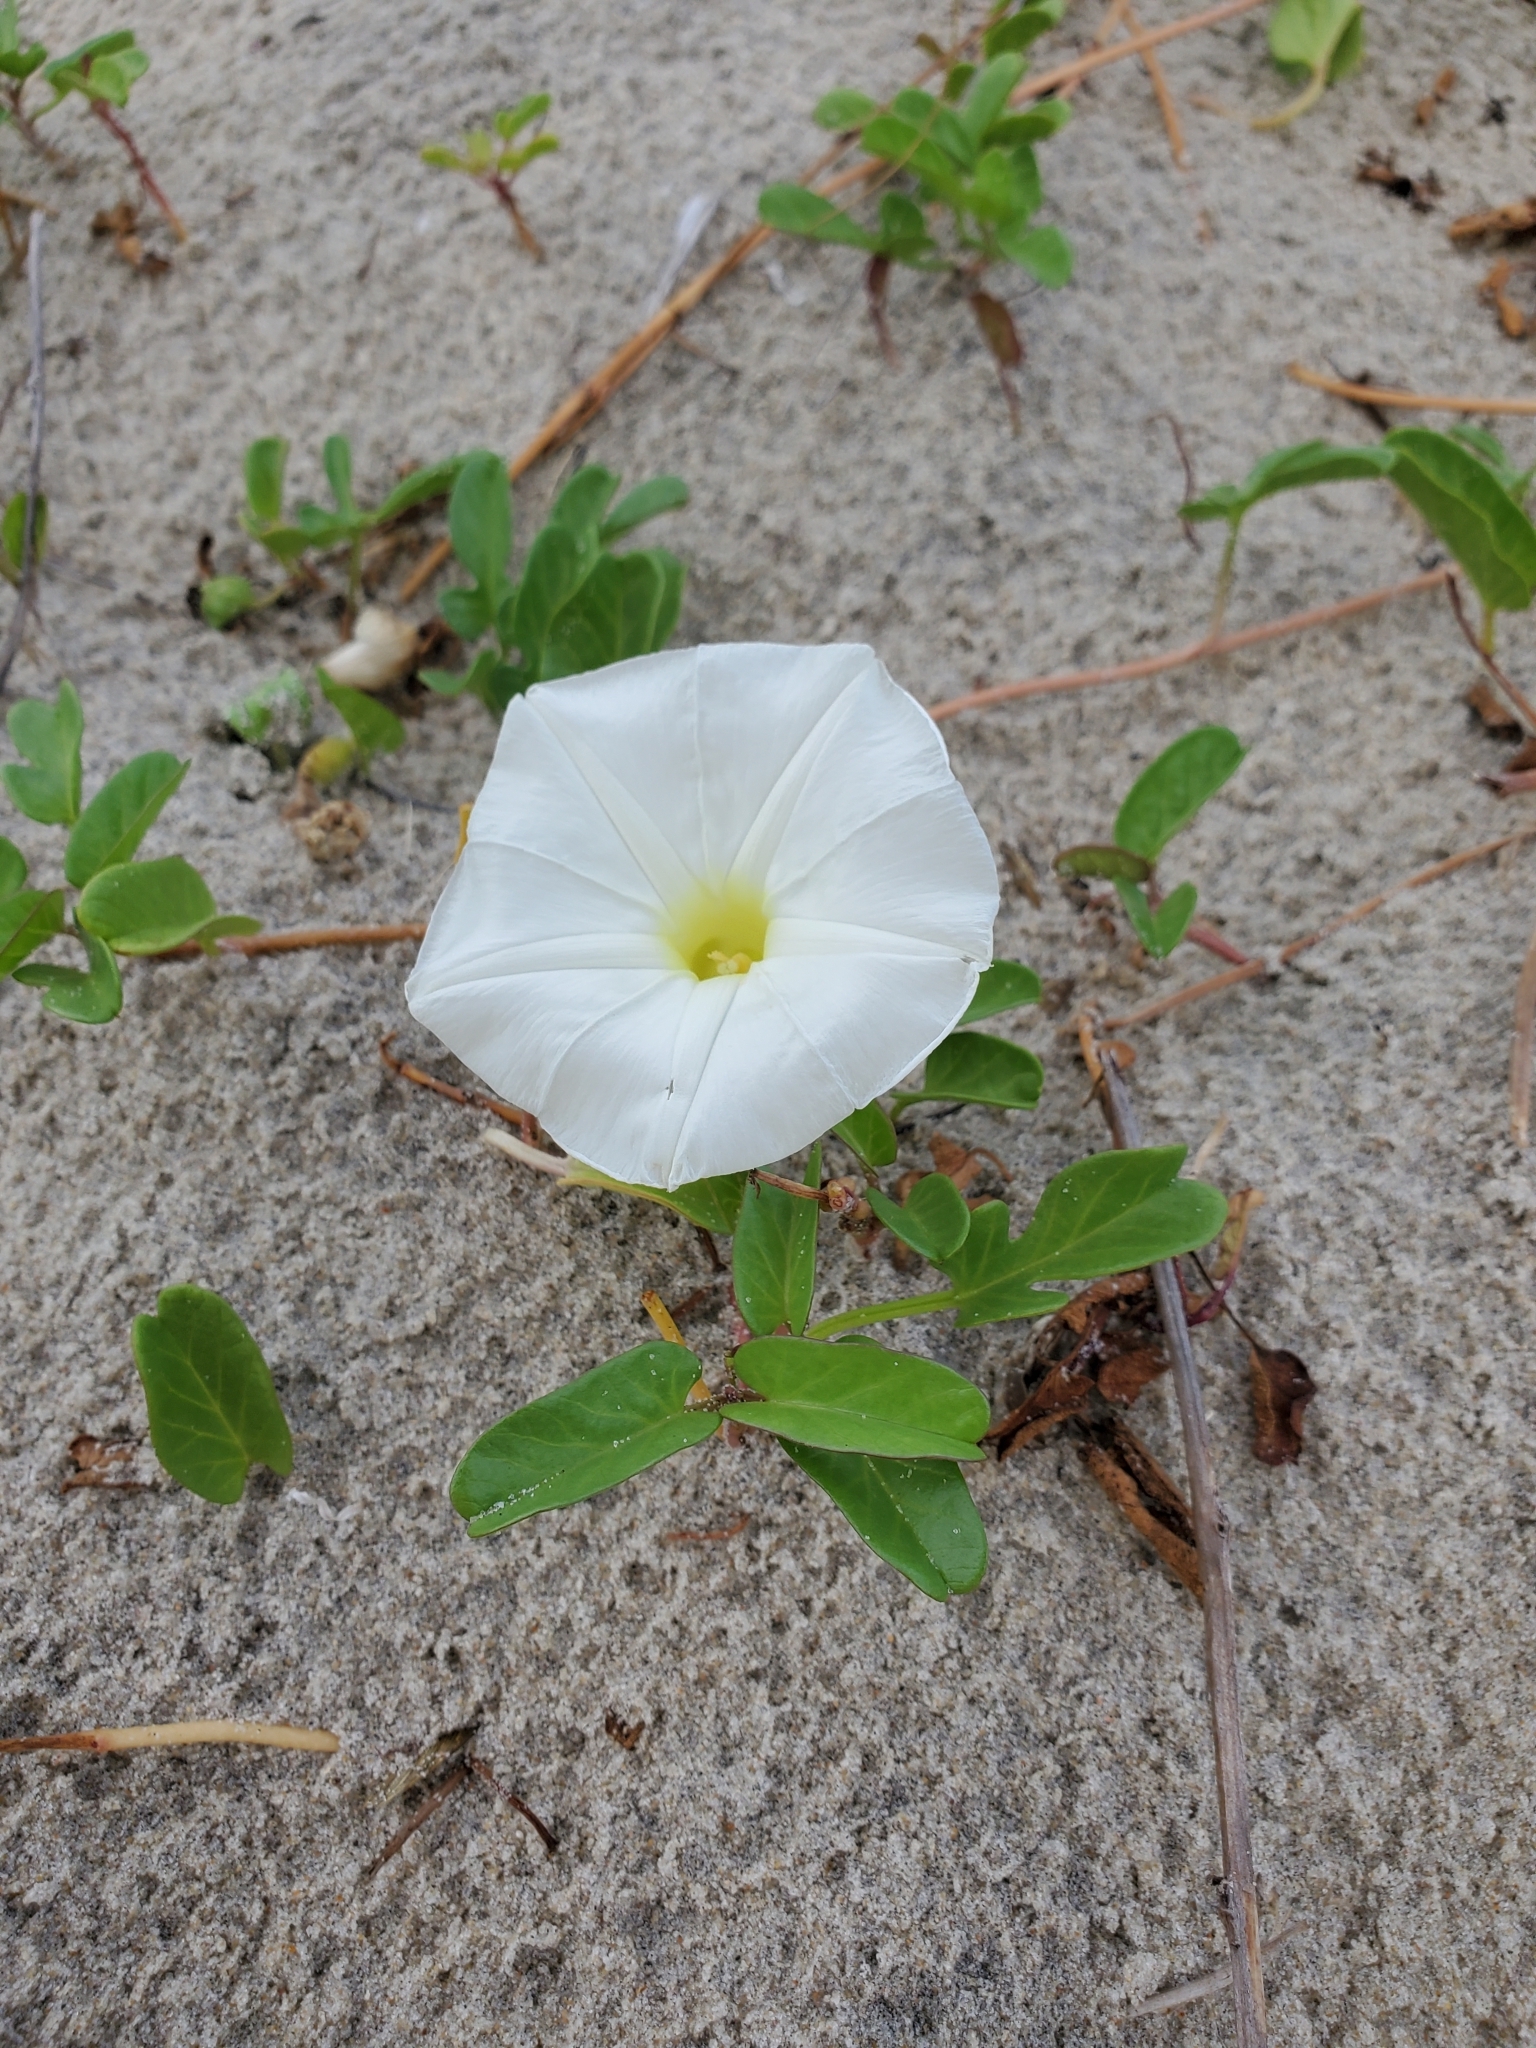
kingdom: Plantae
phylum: Tracheophyta
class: Magnoliopsida
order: Solanales
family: Convolvulaceae
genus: Ipomoea
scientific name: Ipomoea imperati
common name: Fiddle-leaf morning-glory
